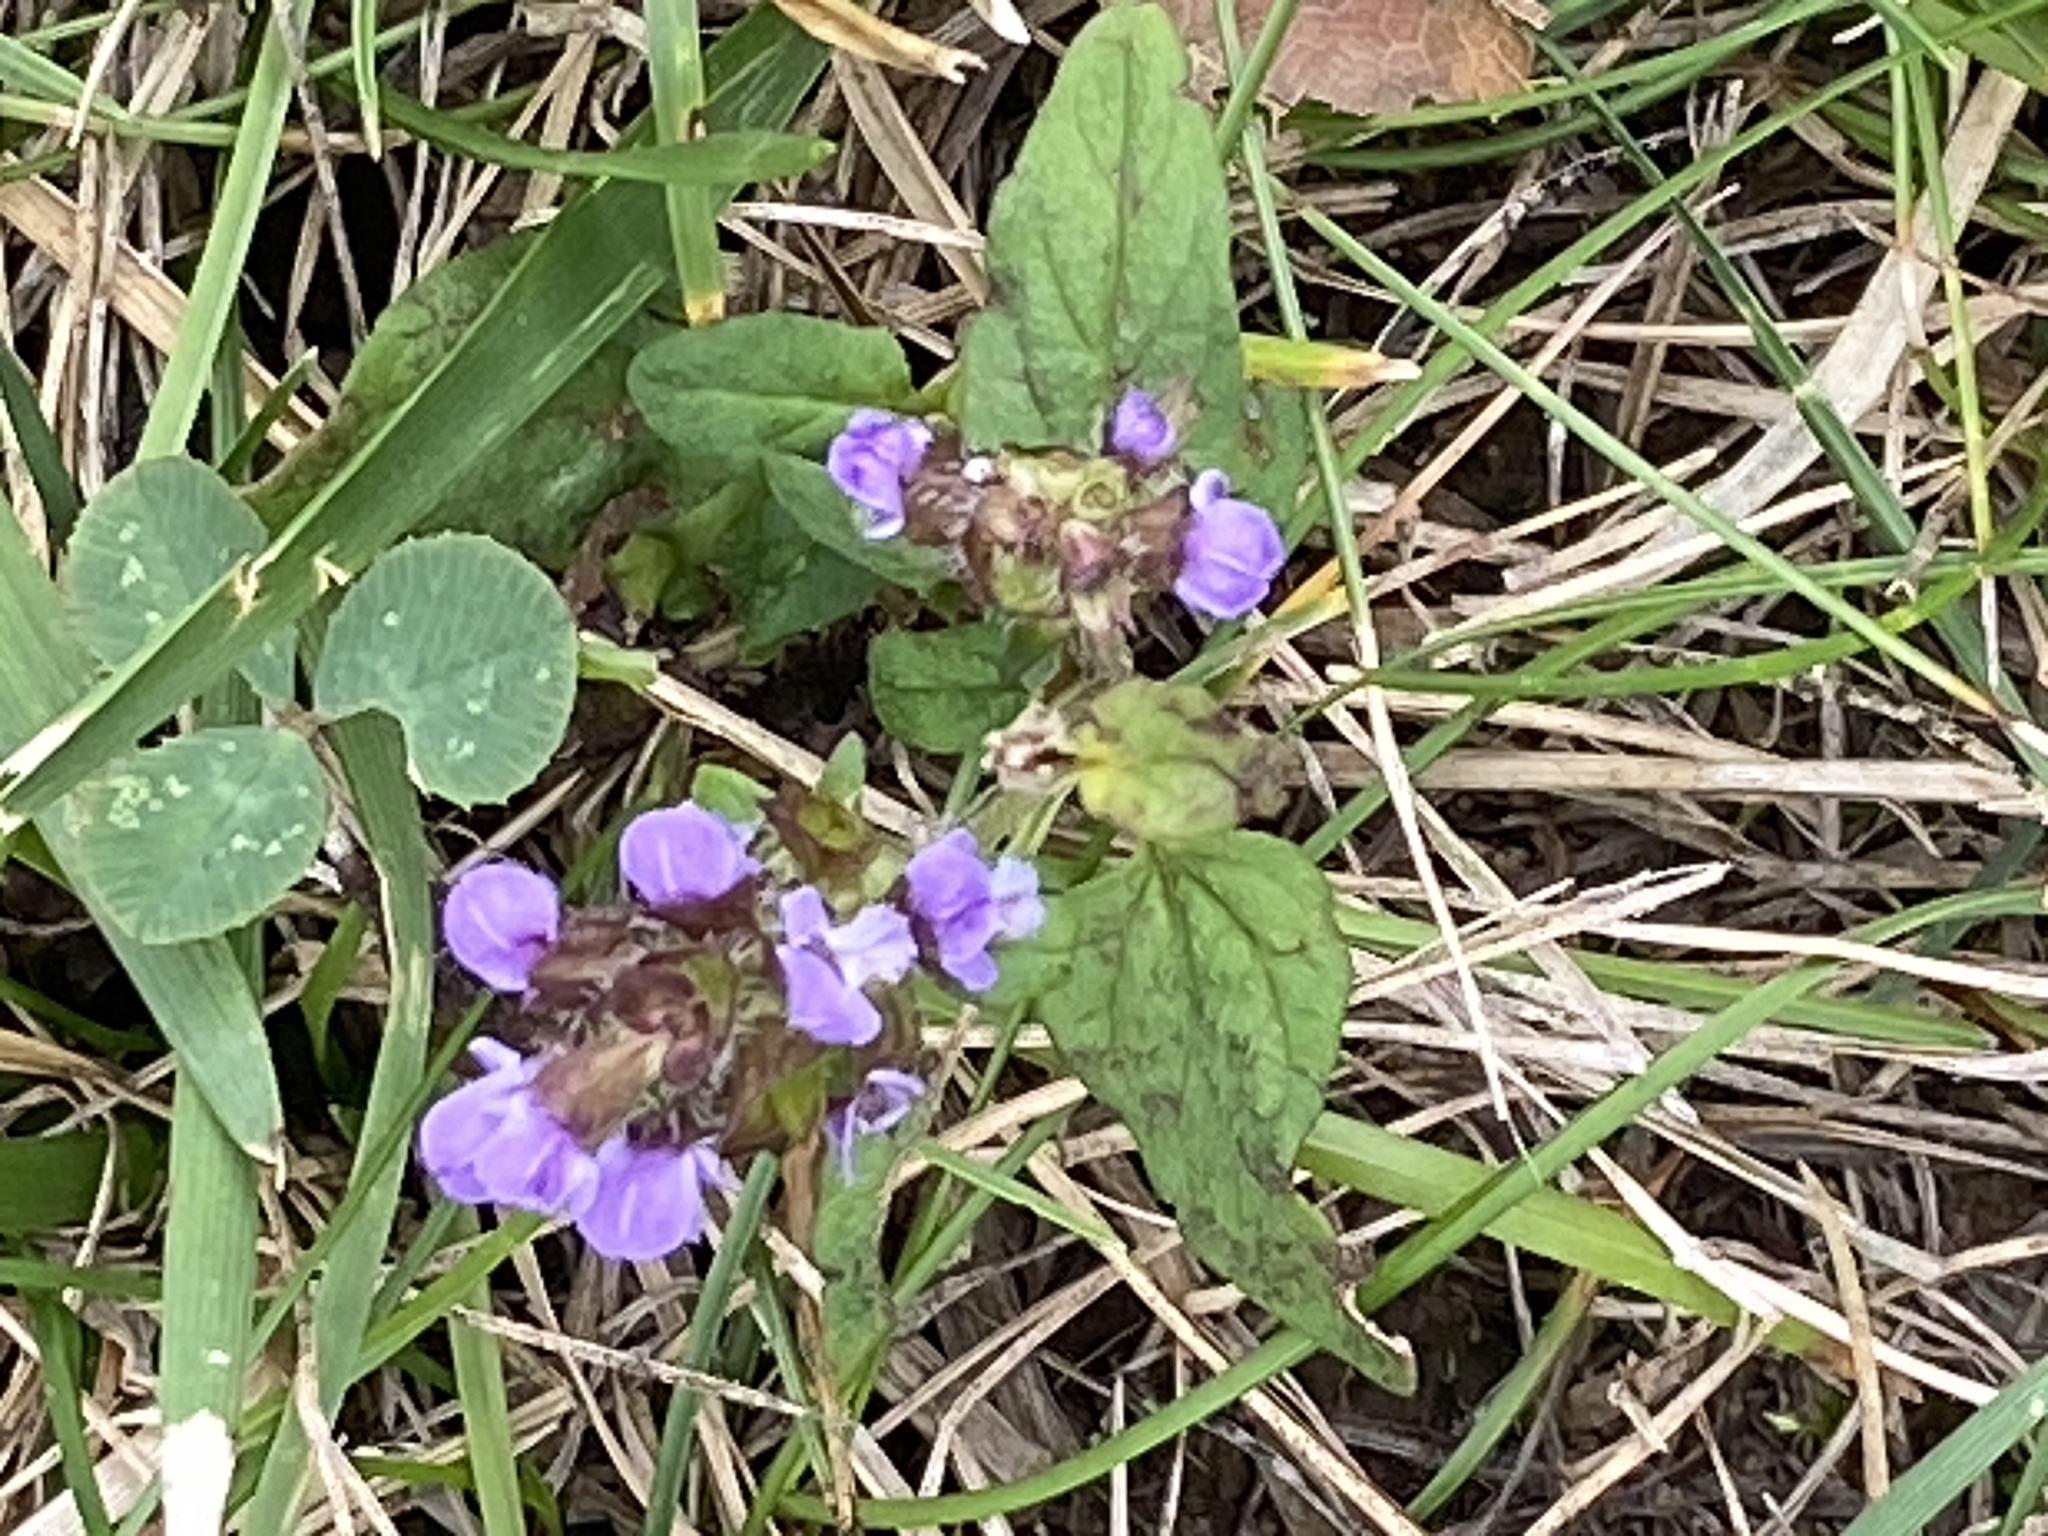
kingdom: Plantae
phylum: Tracheophyta
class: Magnoliopsida
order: Lamiales
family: Lamiaceae
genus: Prunella
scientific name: Prunella vulgaris
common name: Heal-all
